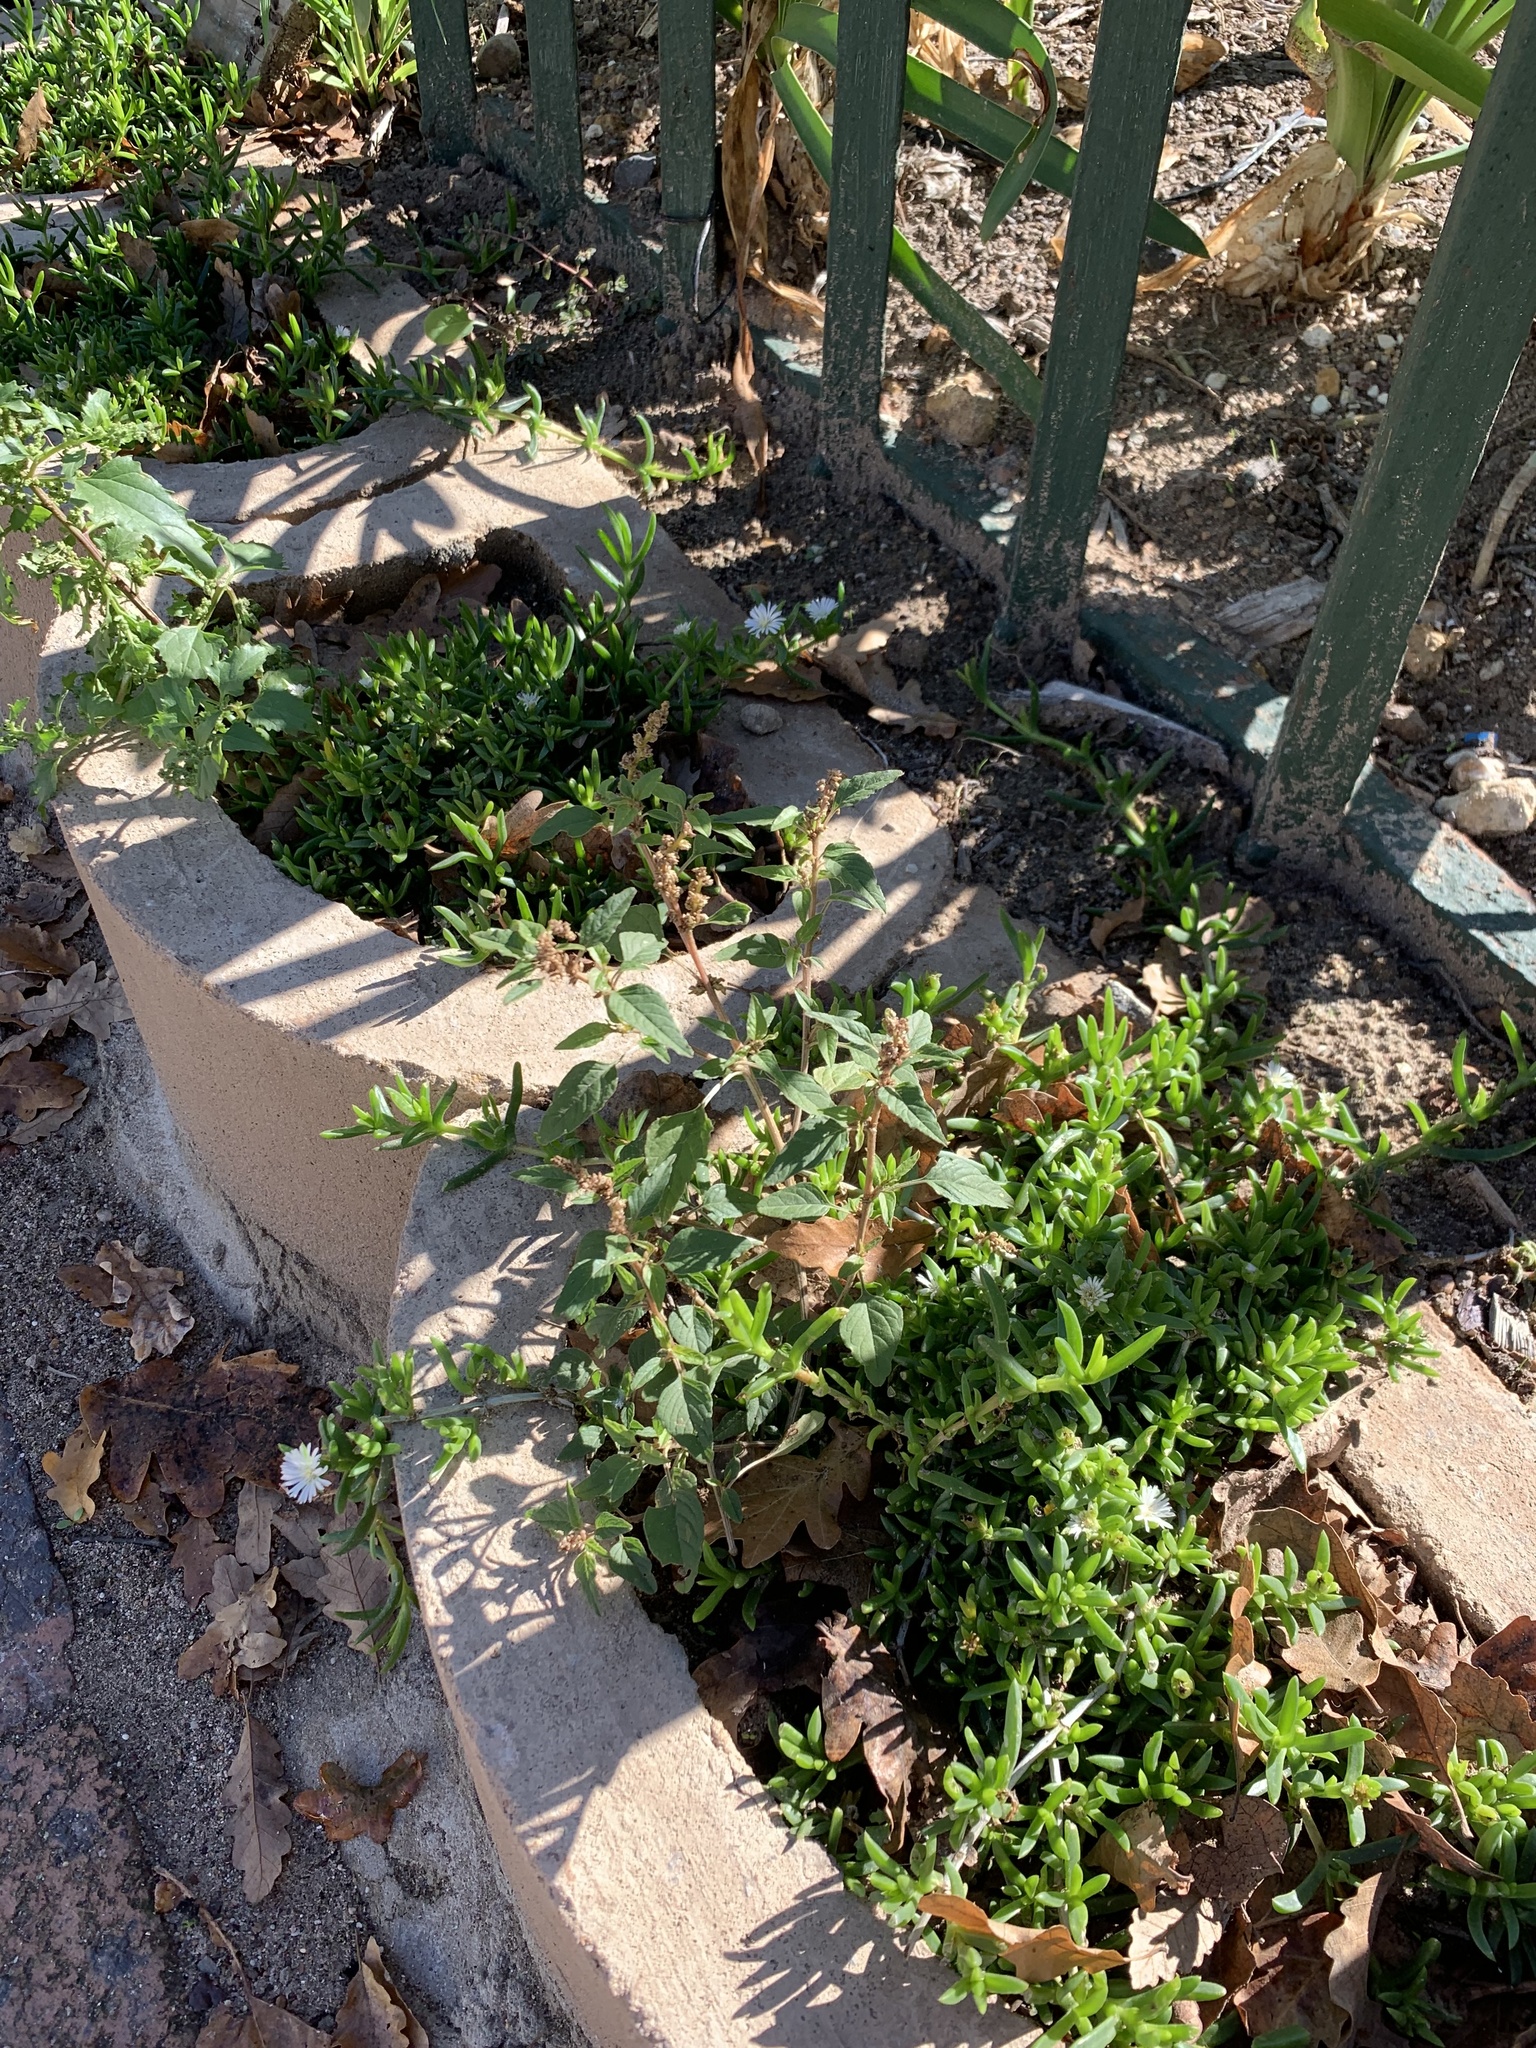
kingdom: Plantae
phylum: Tracheophyta
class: Magnoliopsida
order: Caryophyllales
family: Amaranthaceae
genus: Amaranthus
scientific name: Amaranthus deflexus
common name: Perennial pigweed
